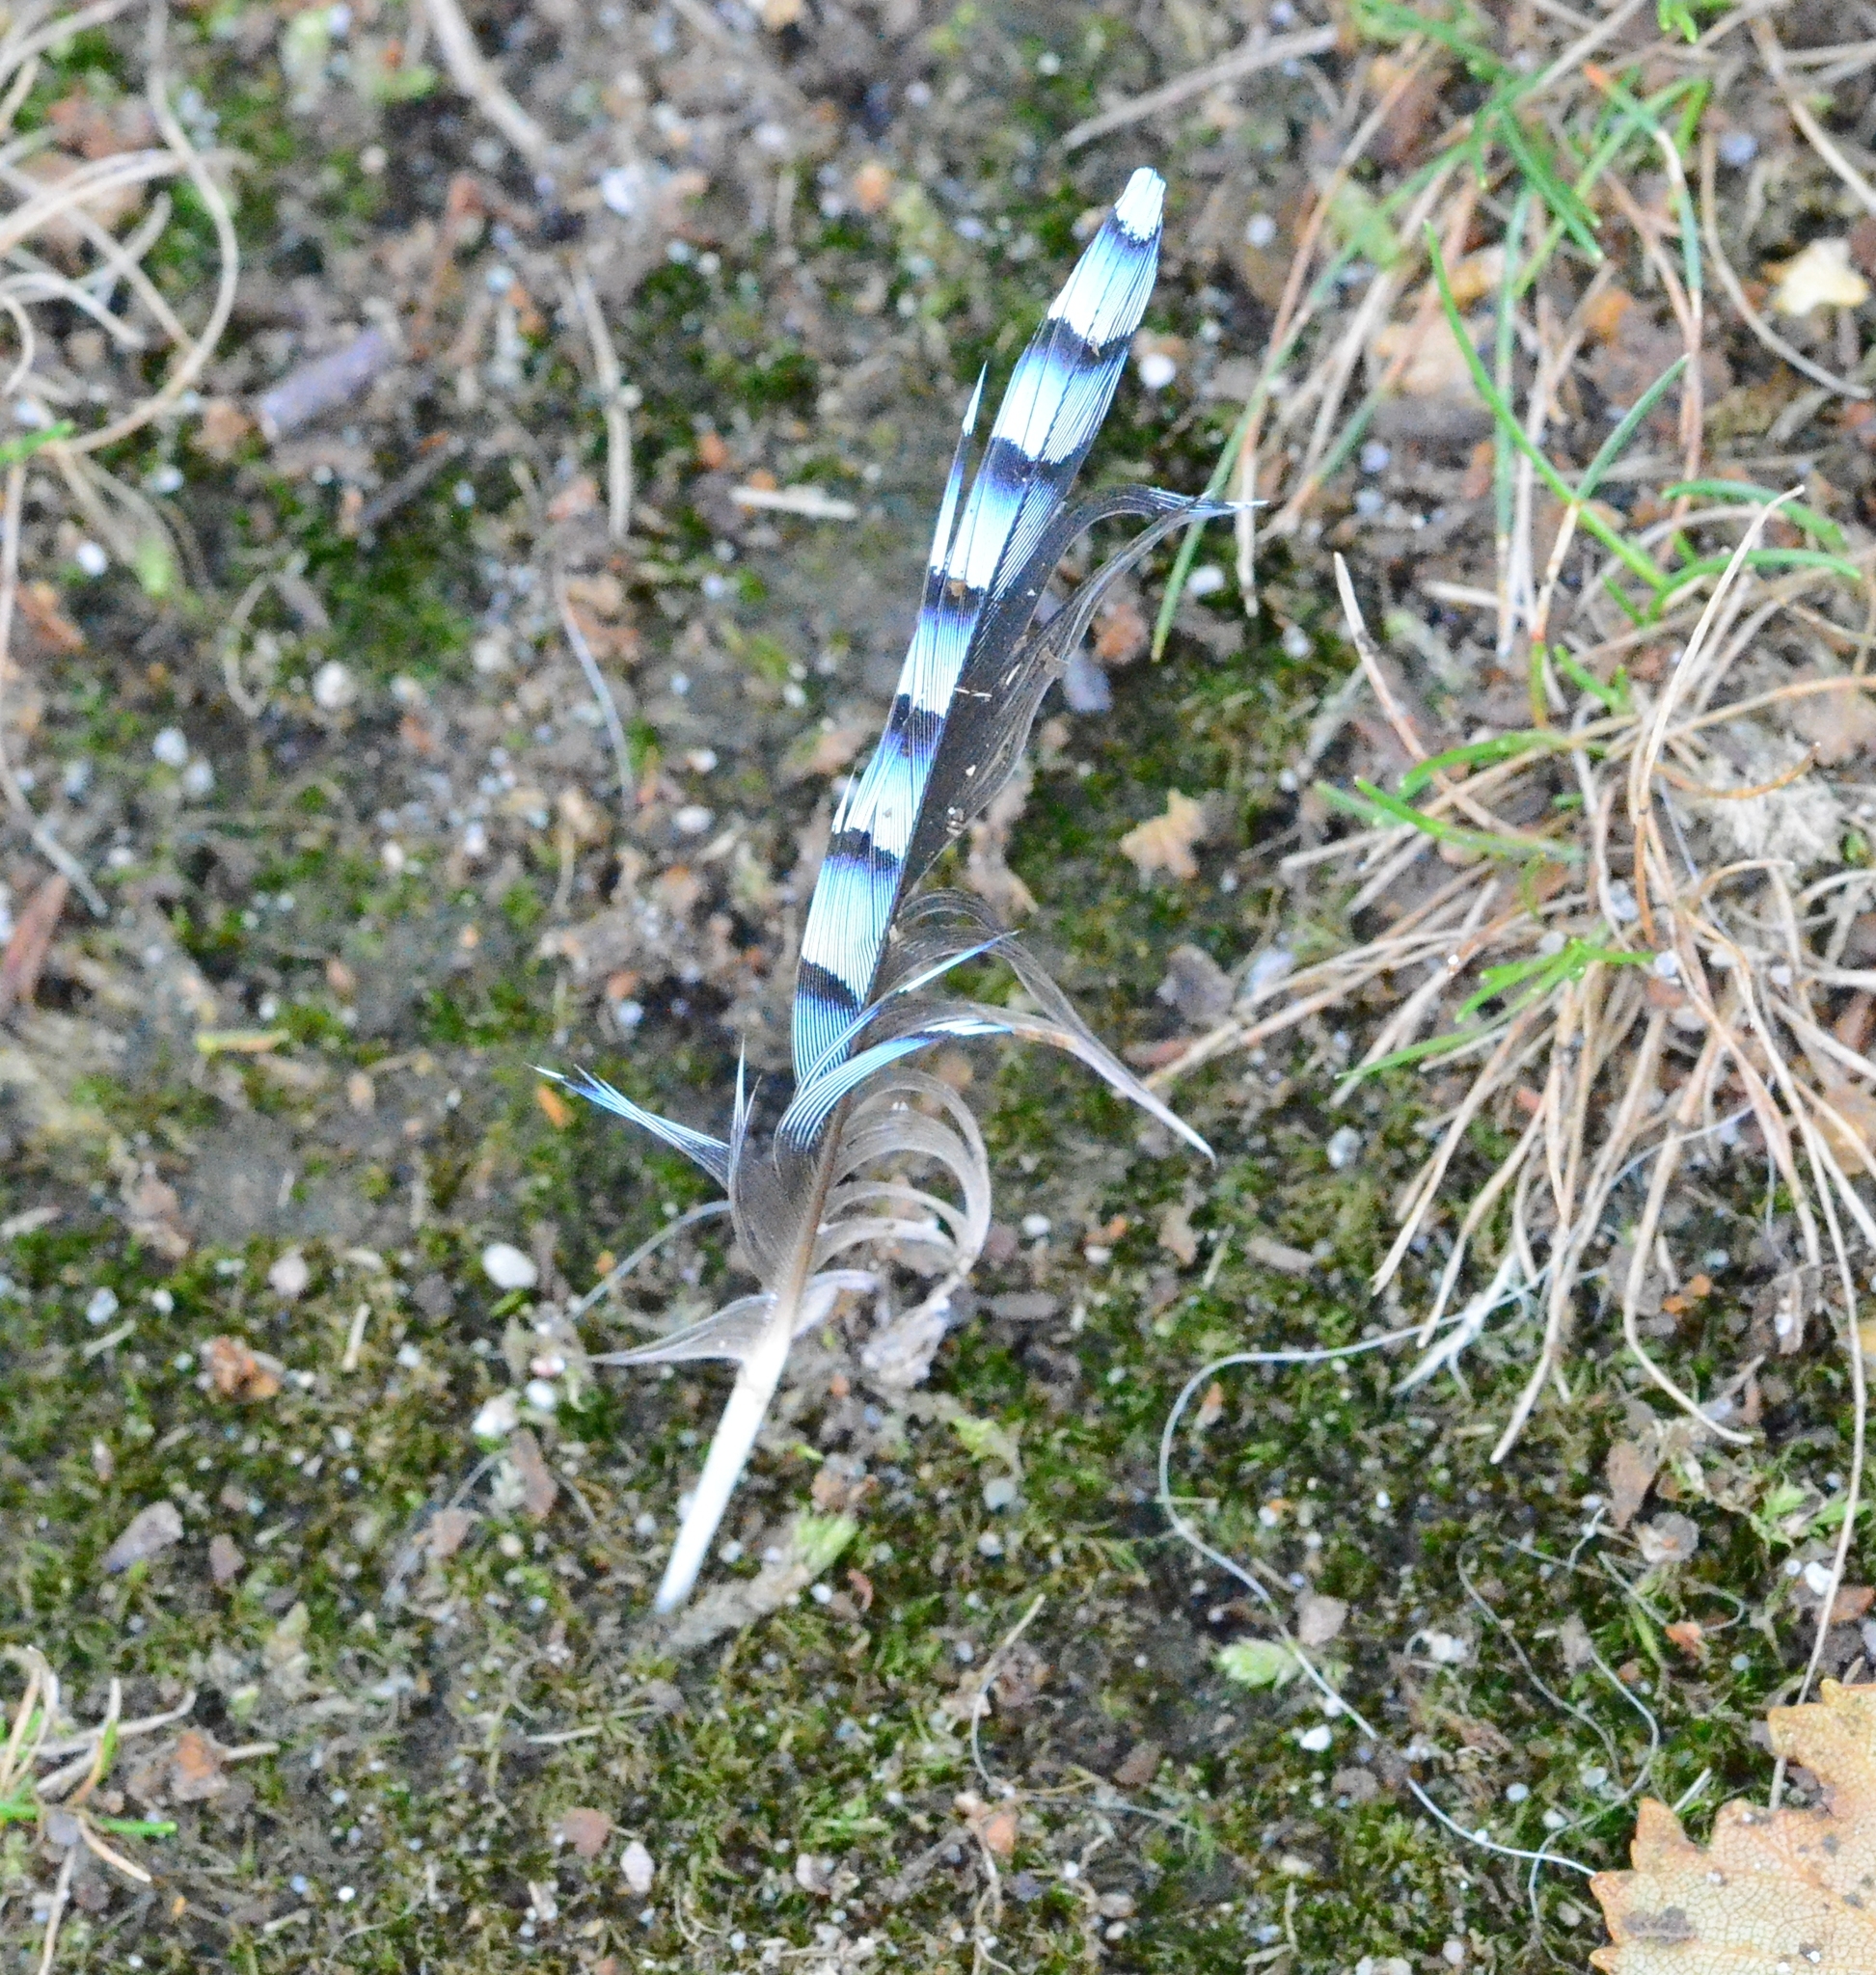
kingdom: Animalia
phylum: Chordata
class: Aves
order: Passeriformes
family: Corvidae
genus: Garrulus
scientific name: Garrulus glandarius
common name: Eurasian jay
